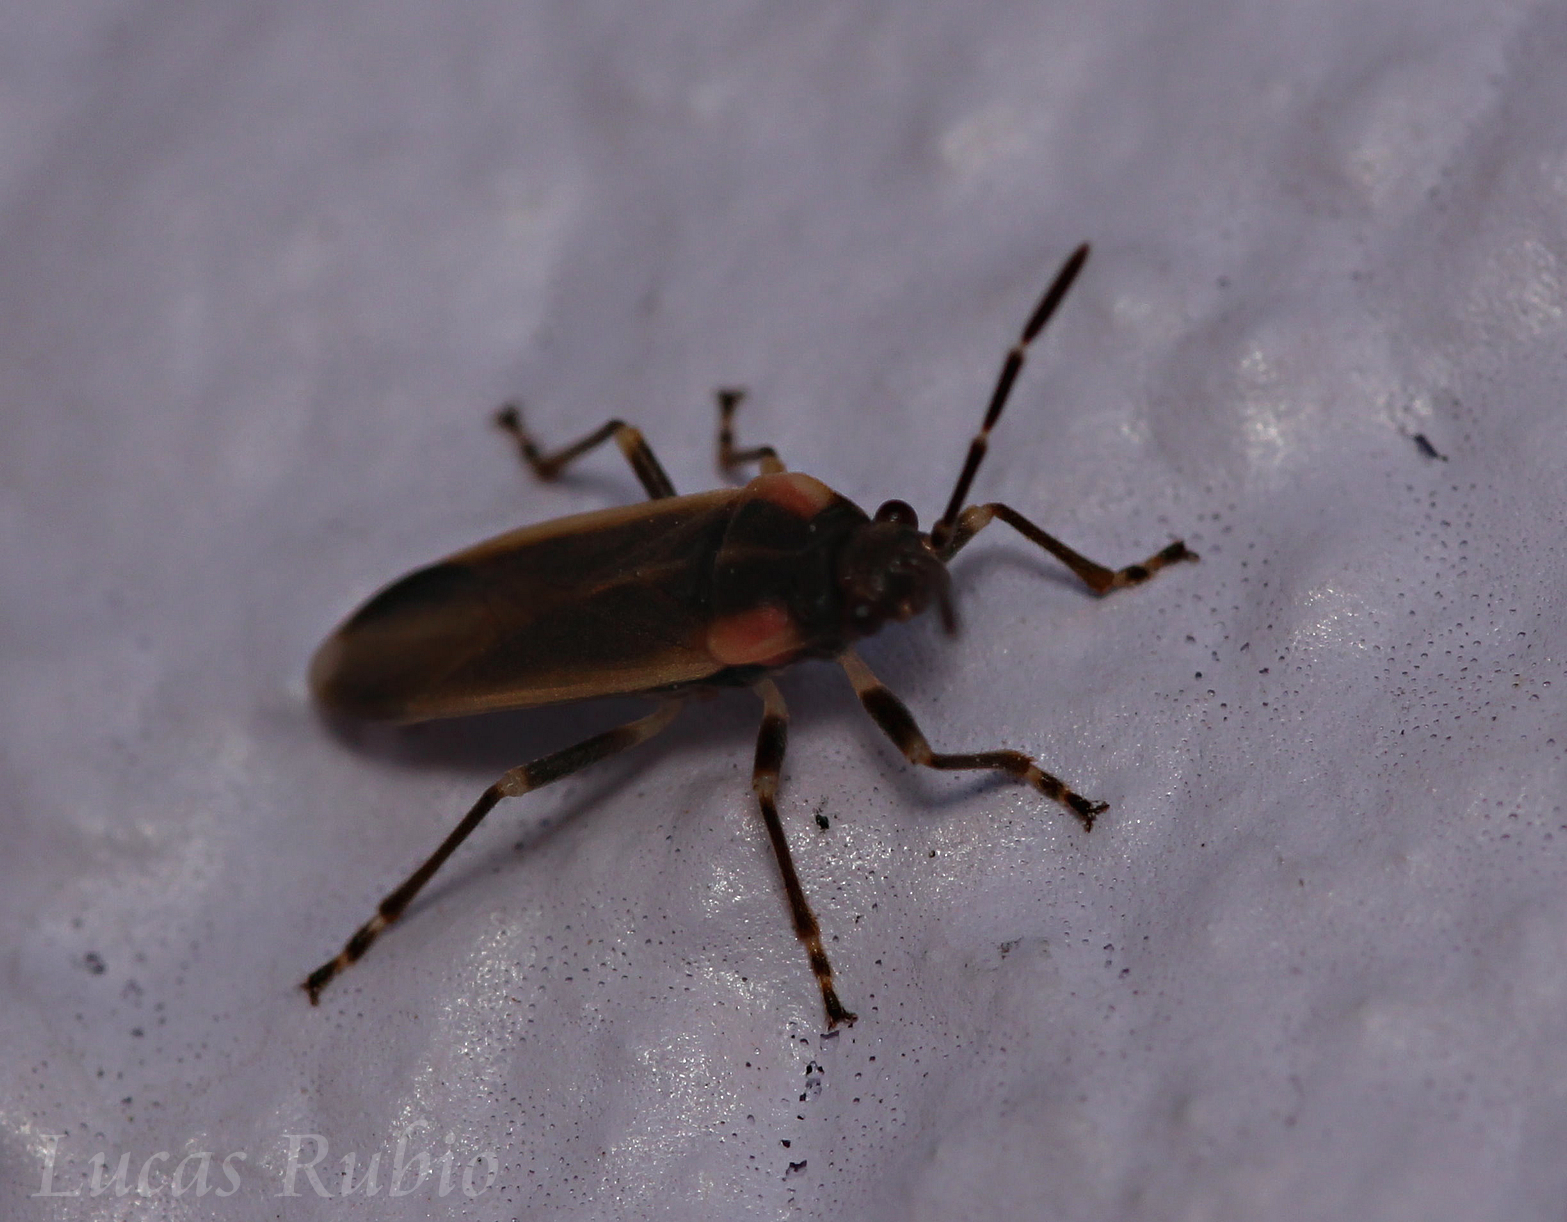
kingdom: Animalia
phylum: Arthropoda
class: Insecta
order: Hemiptera
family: Lygaeidae
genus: Acroleucus
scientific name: Acroleucus coxalis
